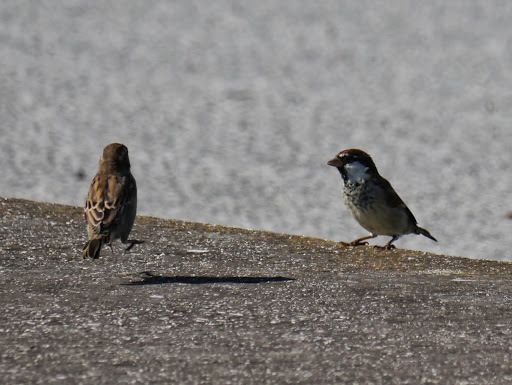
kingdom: Animalia
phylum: Chordata
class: Aves
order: Passeriformes
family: Passeridae
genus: Passer
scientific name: Passer italiae
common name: Italian sparrow
